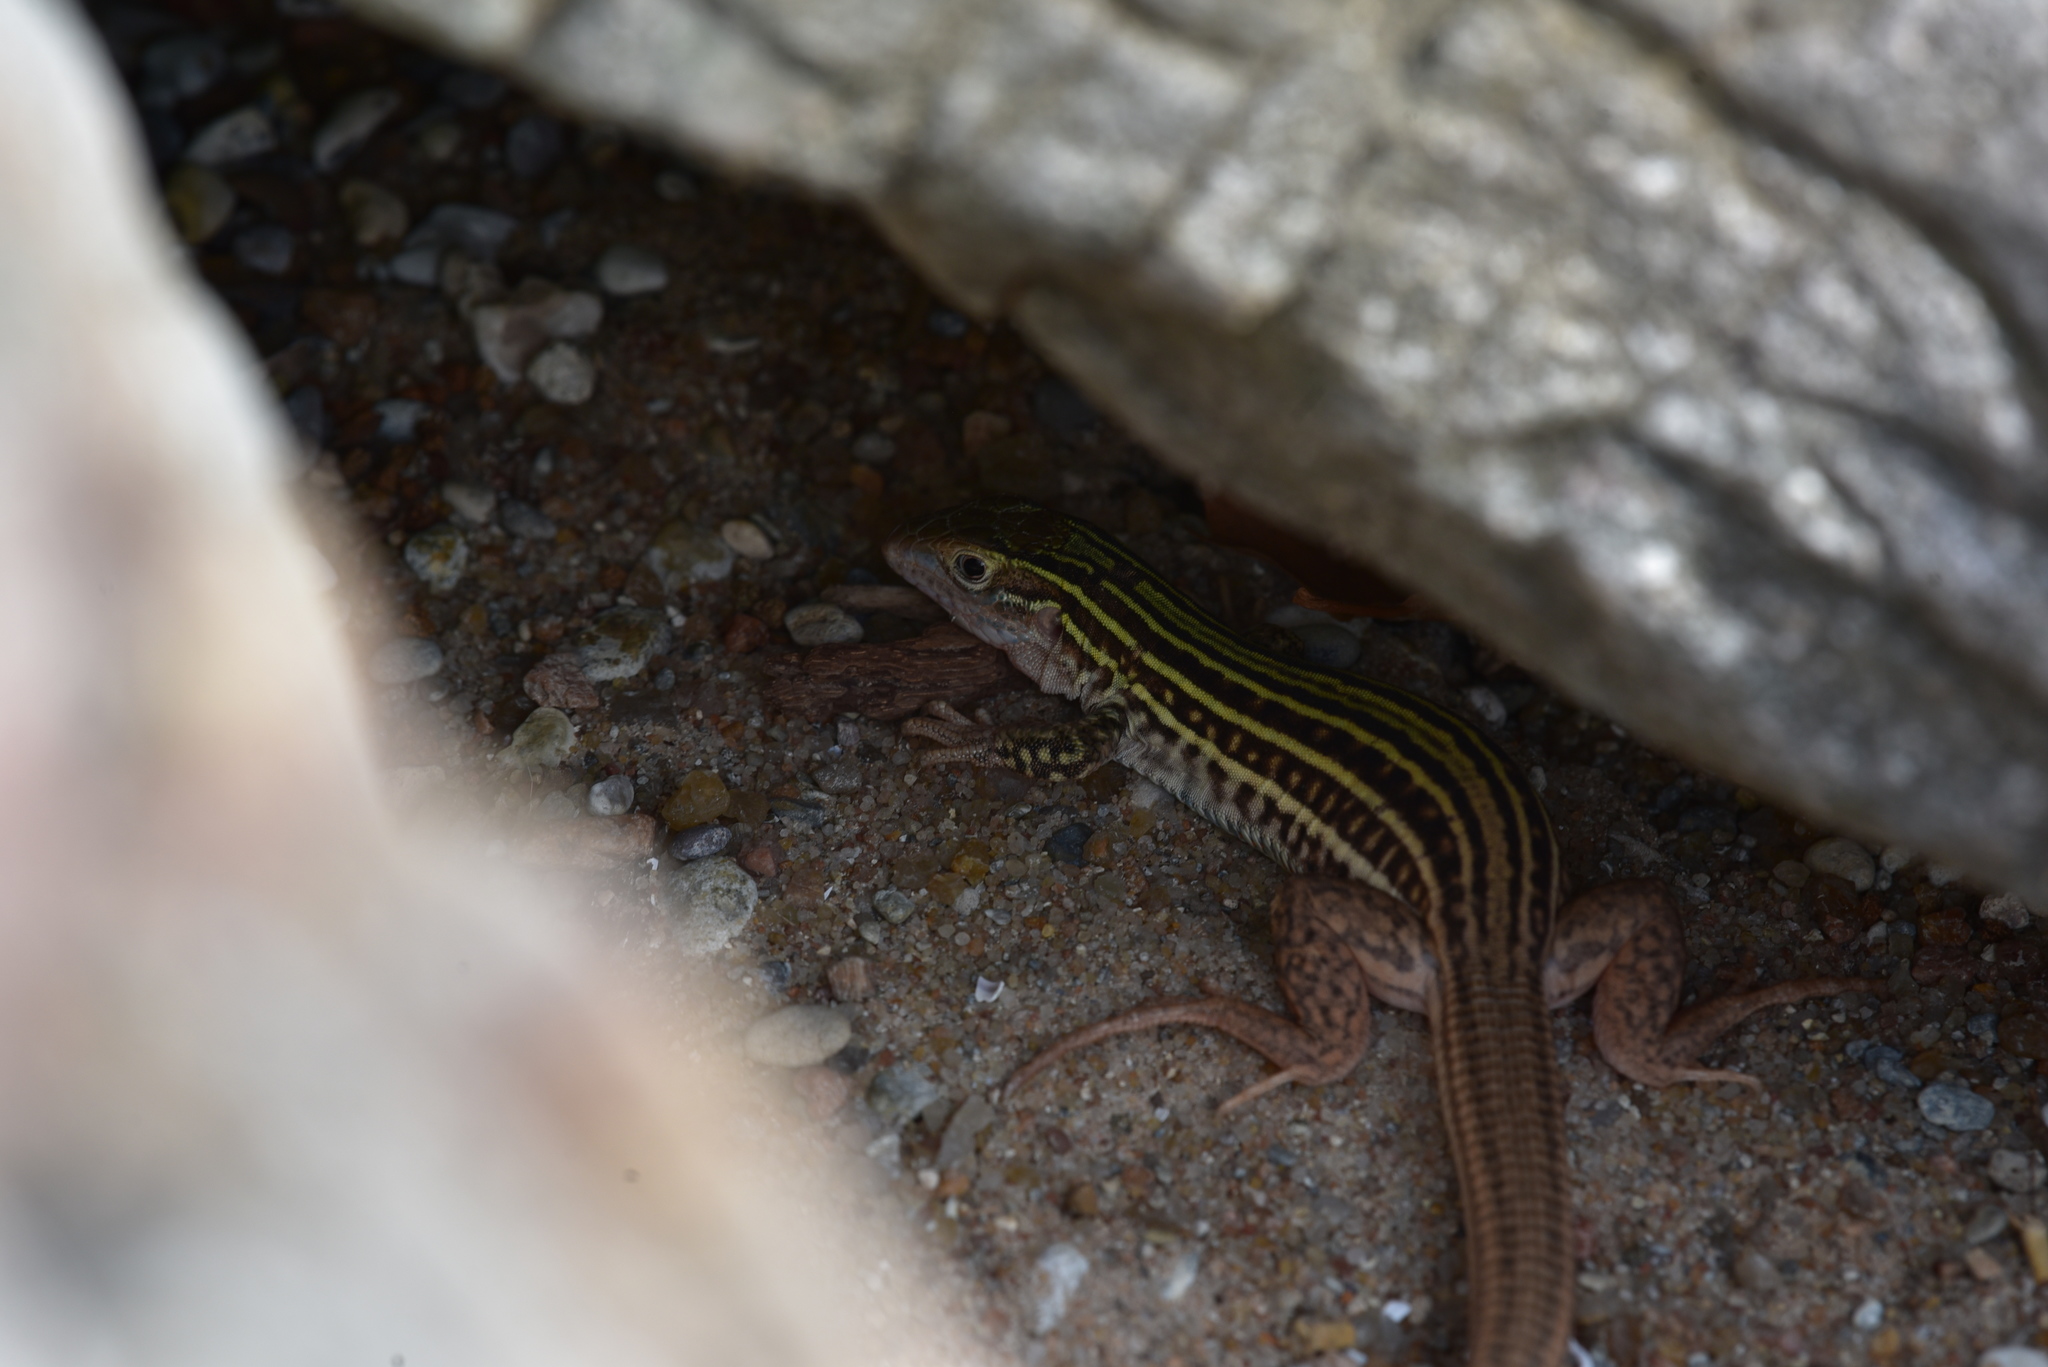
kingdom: Animalia
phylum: Chordata
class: Squamata
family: Teiidae
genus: Aspidoscelis
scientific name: Aspidoscelis gularis
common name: Eastern spotted whiptail
